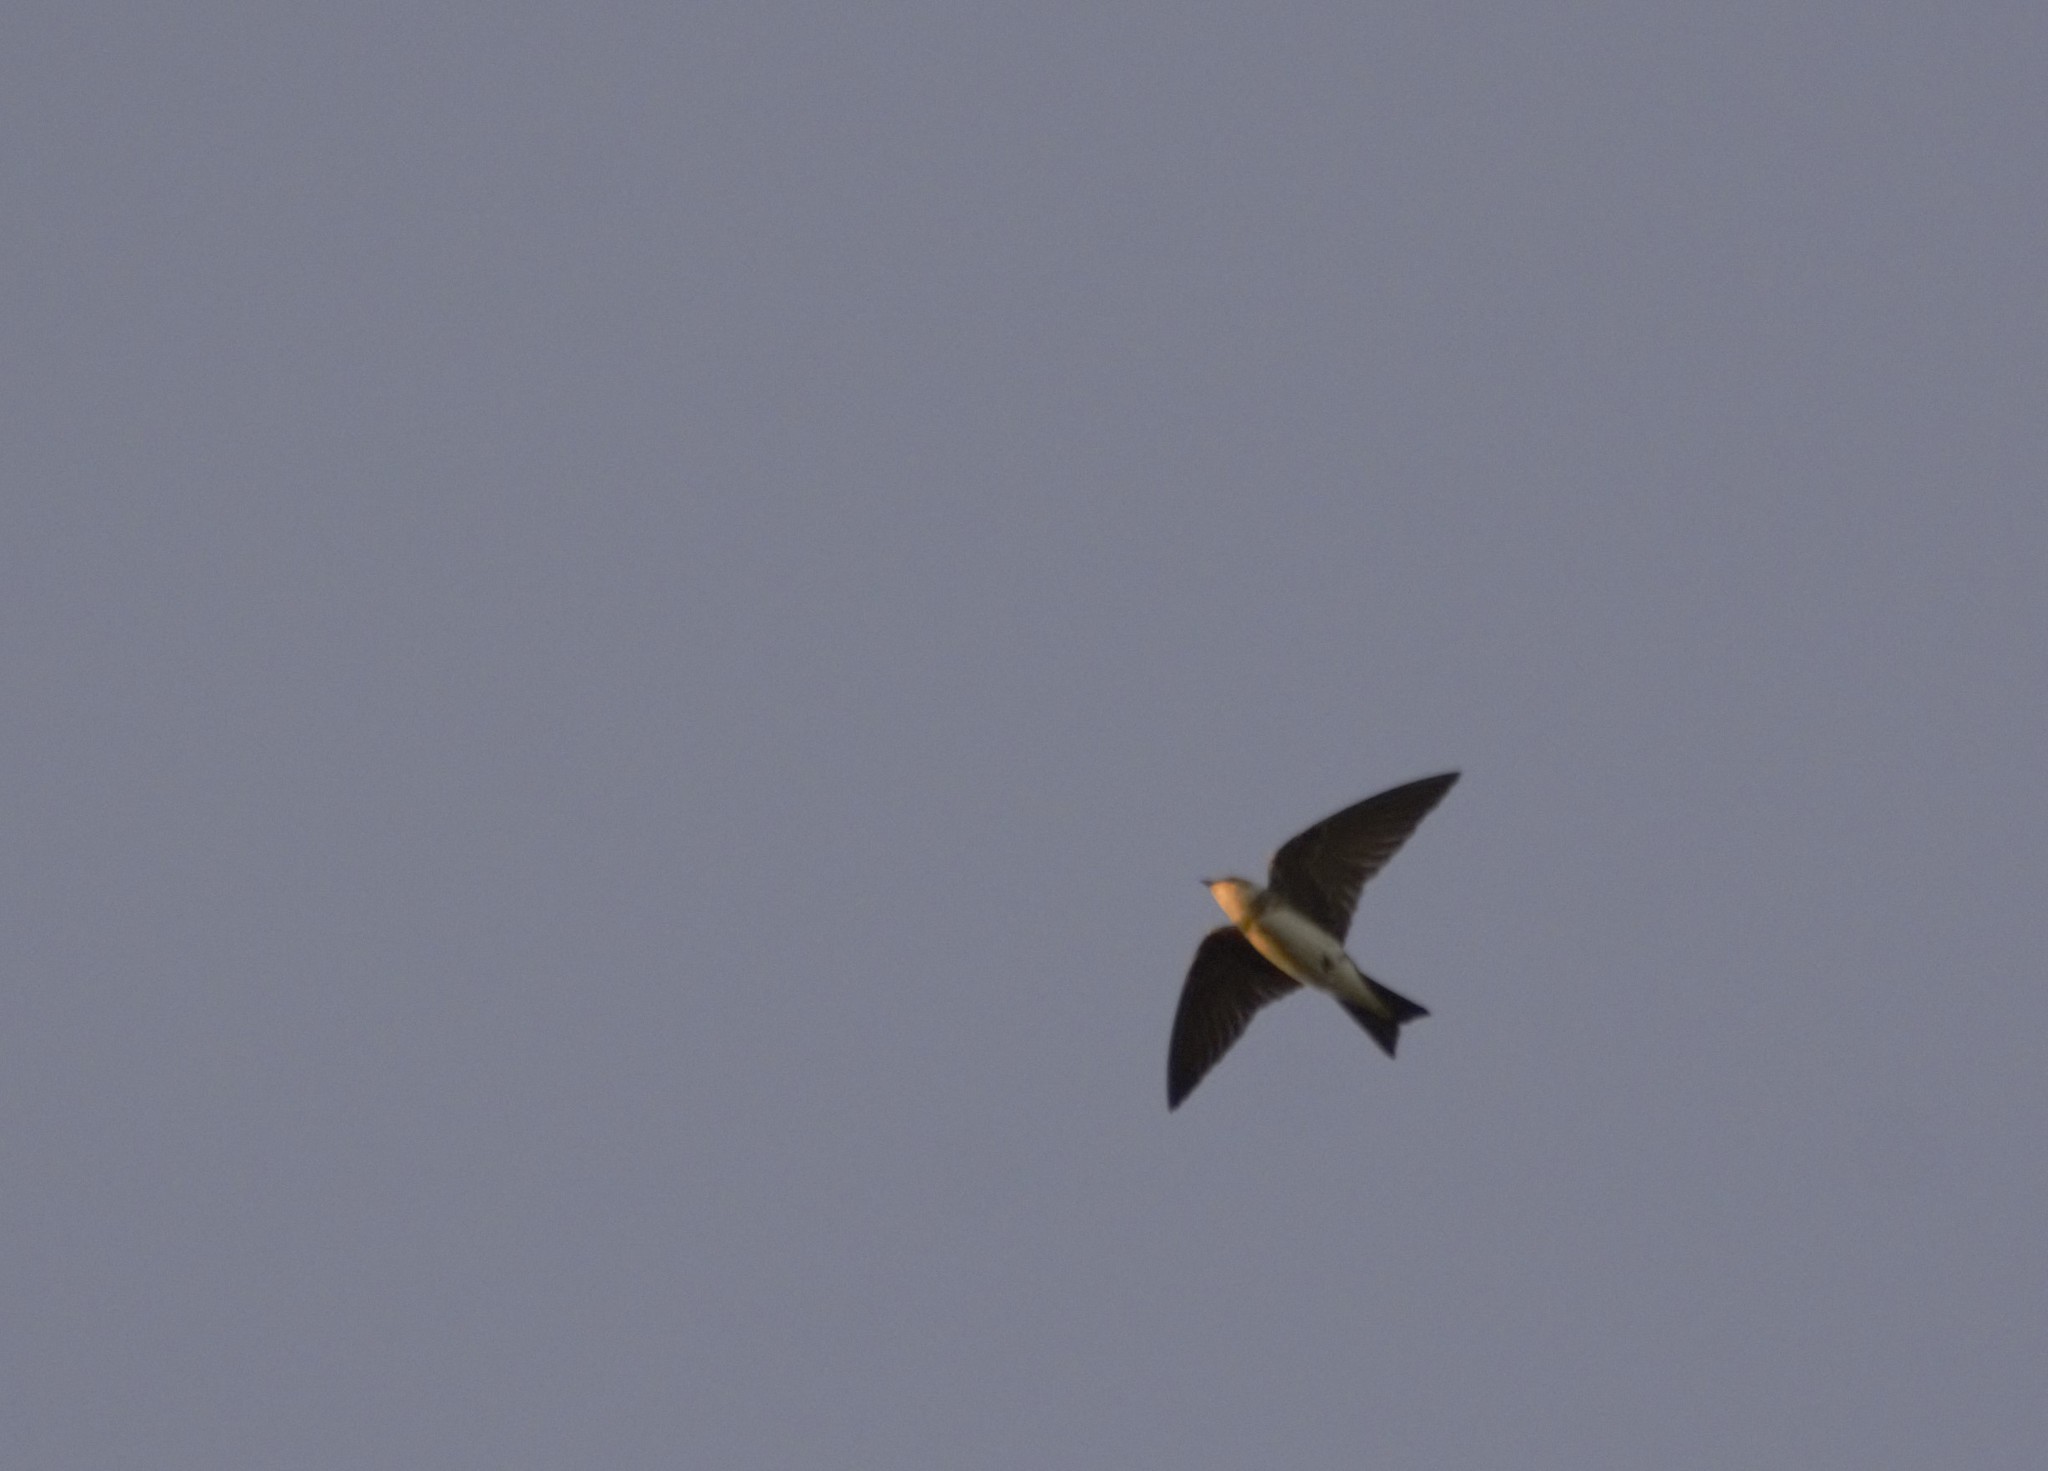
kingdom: Animalia
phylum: Chordata
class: Aves
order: Passeriformes
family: Hirundinidae
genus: Progne
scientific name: Progne tapera
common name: Brown-chested martin
